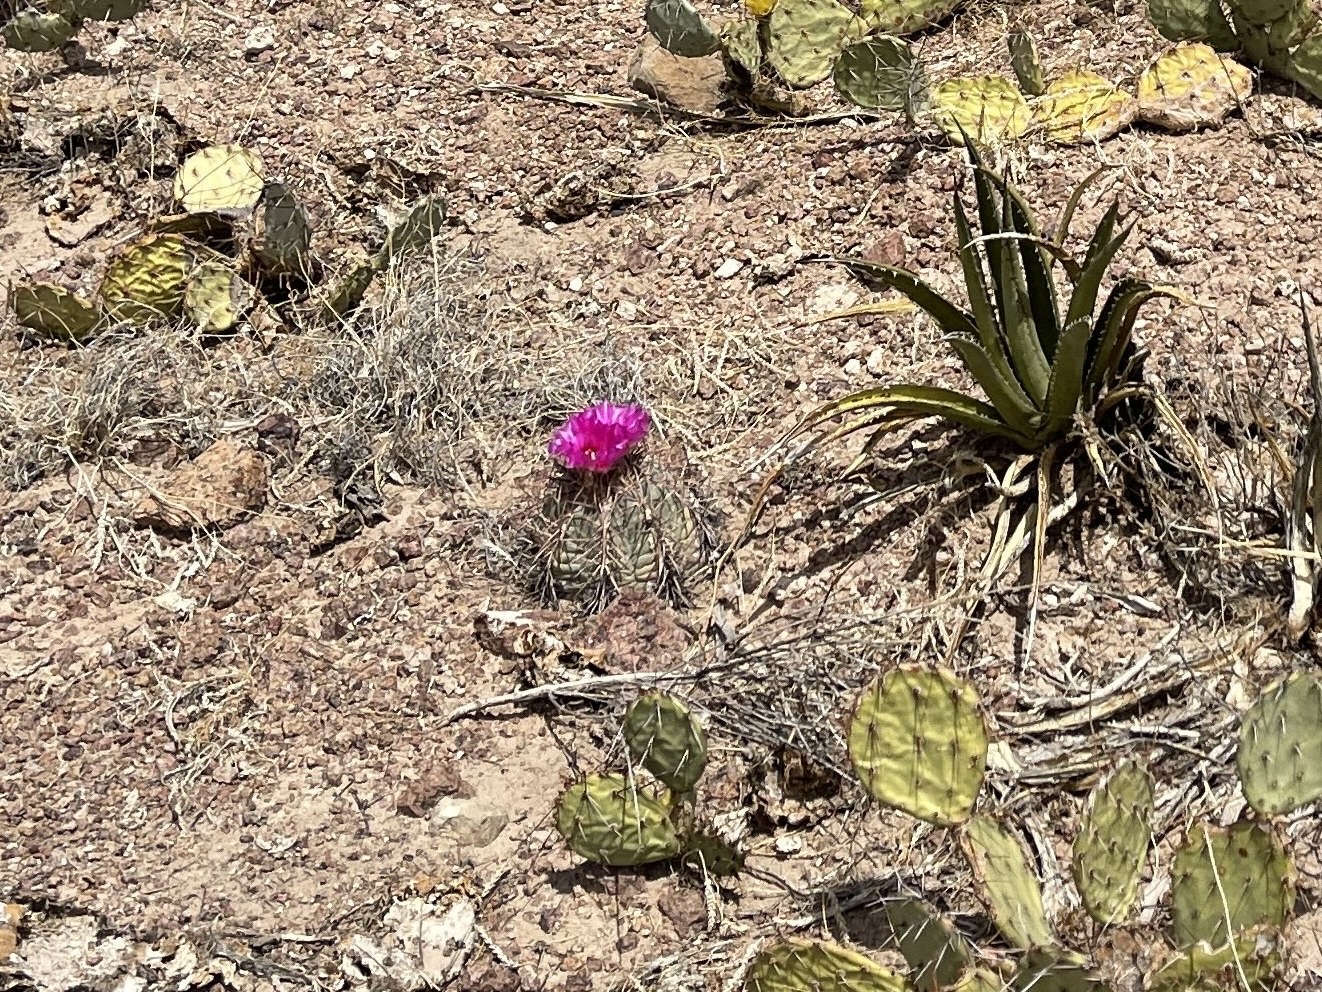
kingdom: Plantae
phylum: Tracheophyta
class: Magnoliopsida
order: Caryophyllales
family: Cactaceae
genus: Echinocactus
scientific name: Echinocactus horizonthalonius
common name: Devilshead
